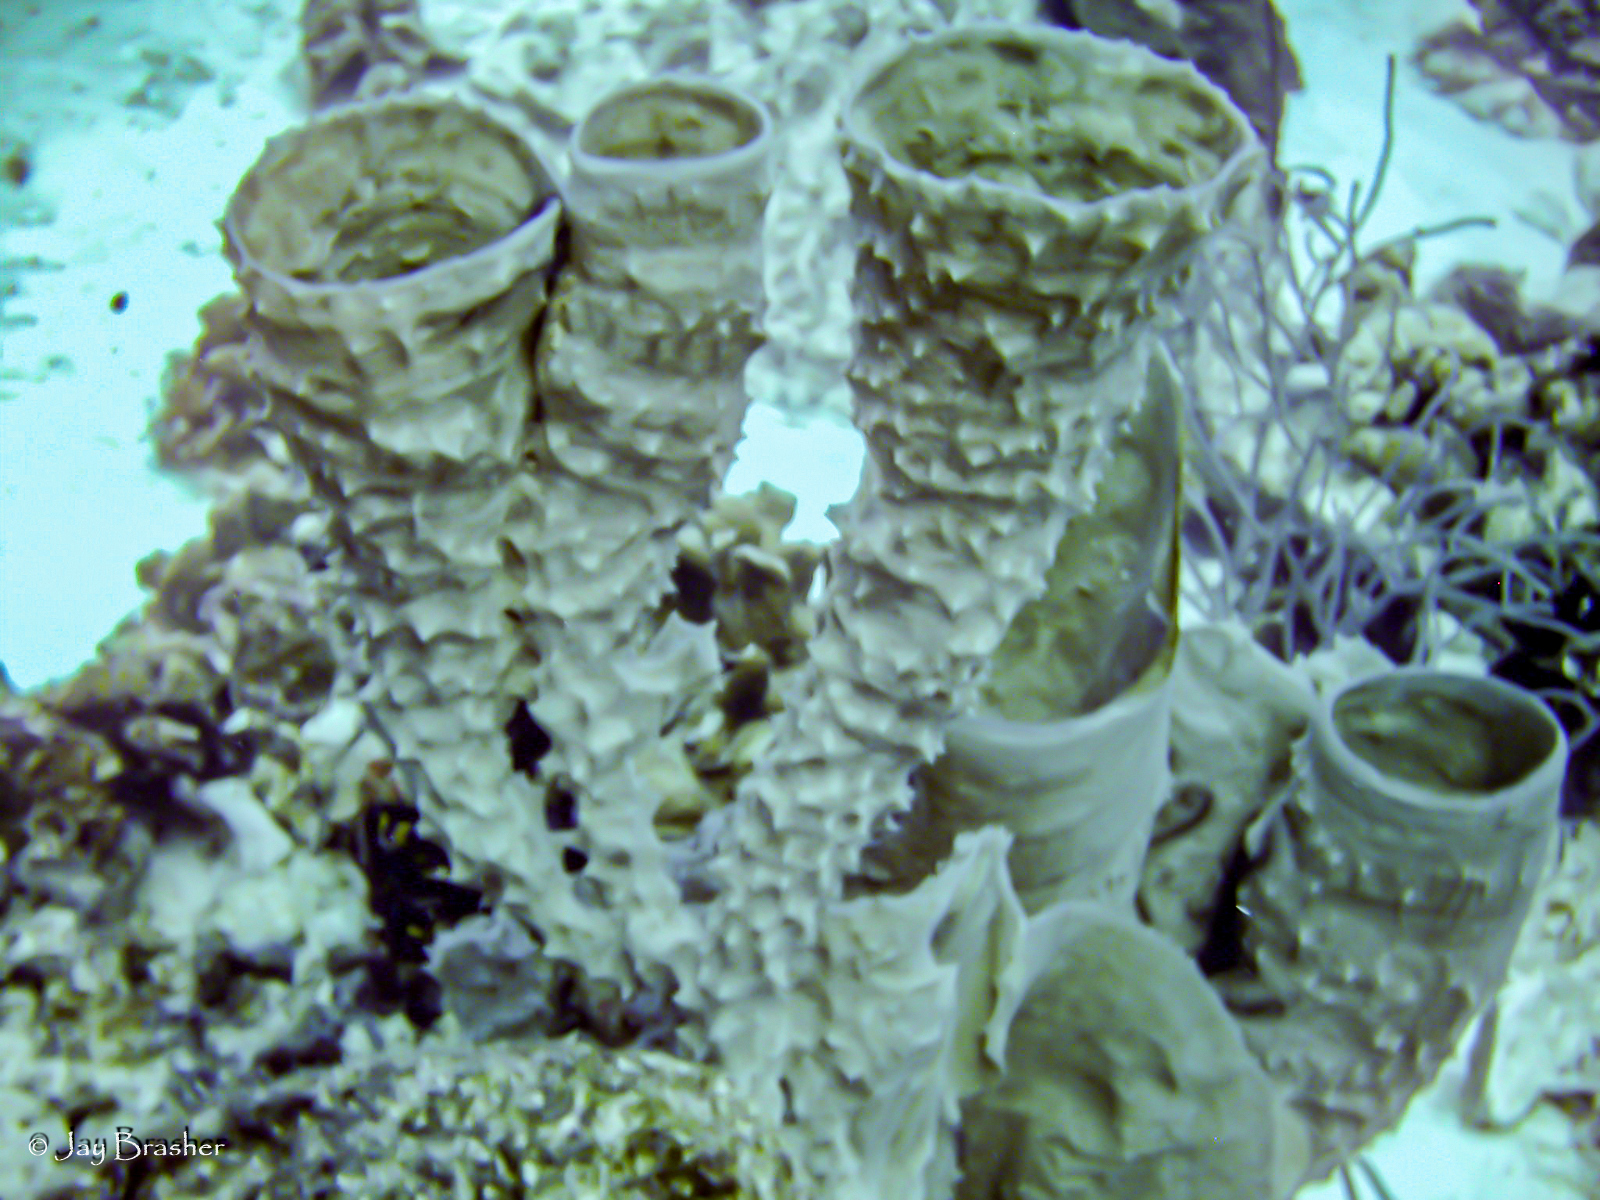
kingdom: Animalia
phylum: Porifera
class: Demospongiae
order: Haplosclerida
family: Callyspongiidae
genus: Callyspongia
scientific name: Callyspongia aculeata
